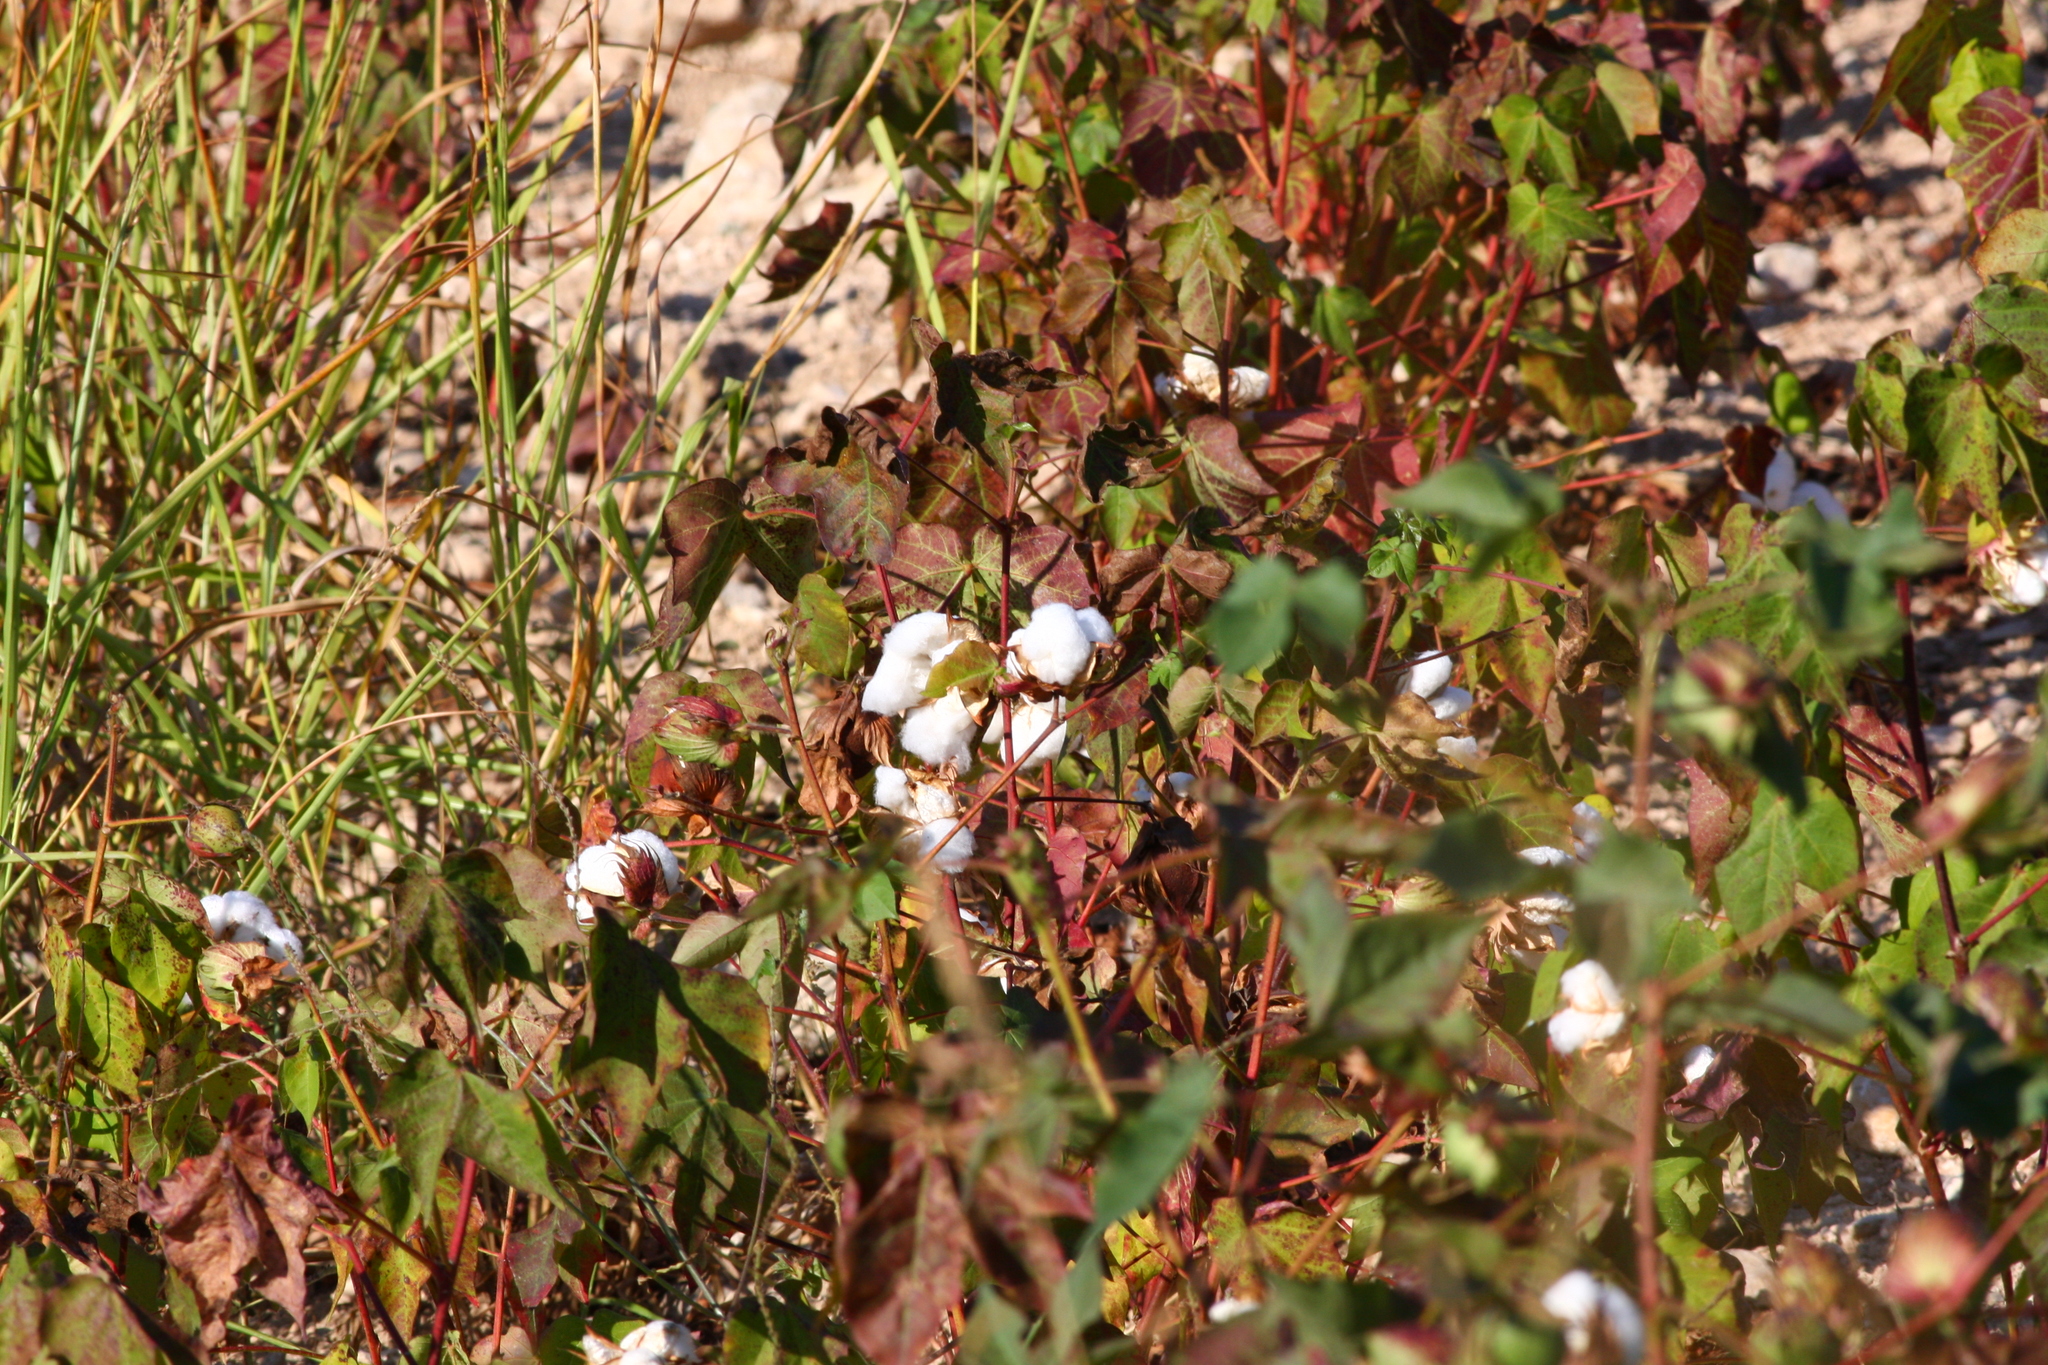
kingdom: Plantae
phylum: Tracheophyta
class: Magnoliopsida
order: Malvales
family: Malvaceae
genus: Gossypium
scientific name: Gossypium hirsutum
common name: Cotton
